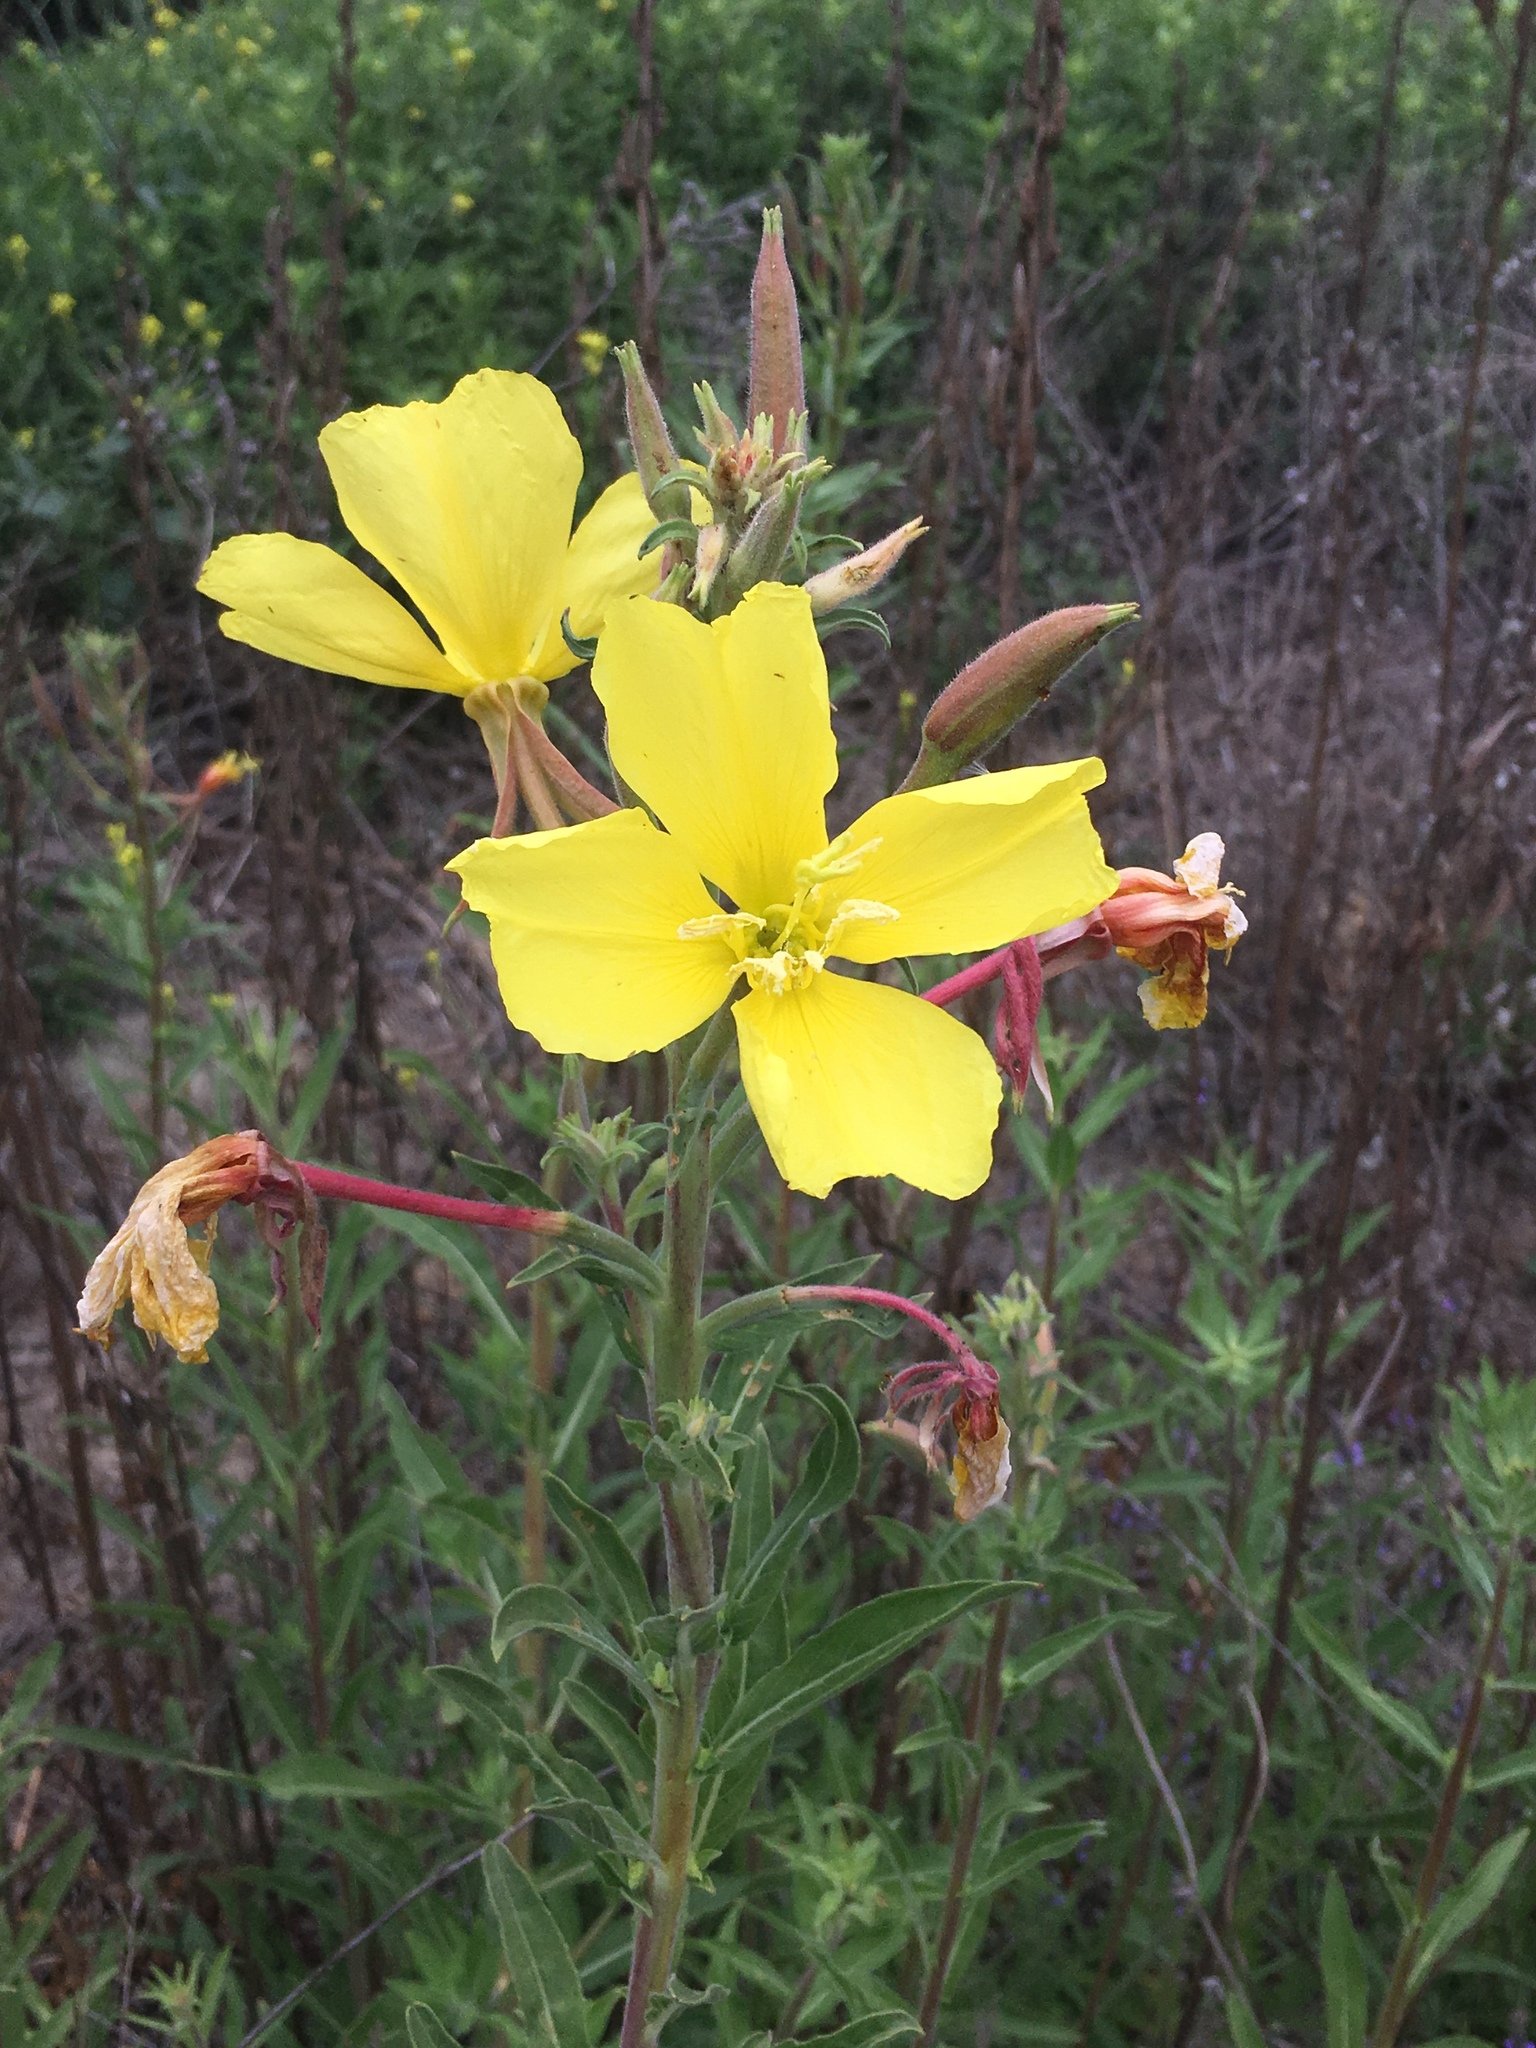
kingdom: Plantae
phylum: Tracheophyta
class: Magnoliopsida
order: Myrtales
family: Onagraceae
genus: Oenothera
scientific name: Oenothera elata
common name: Hooker's evening-primrose
